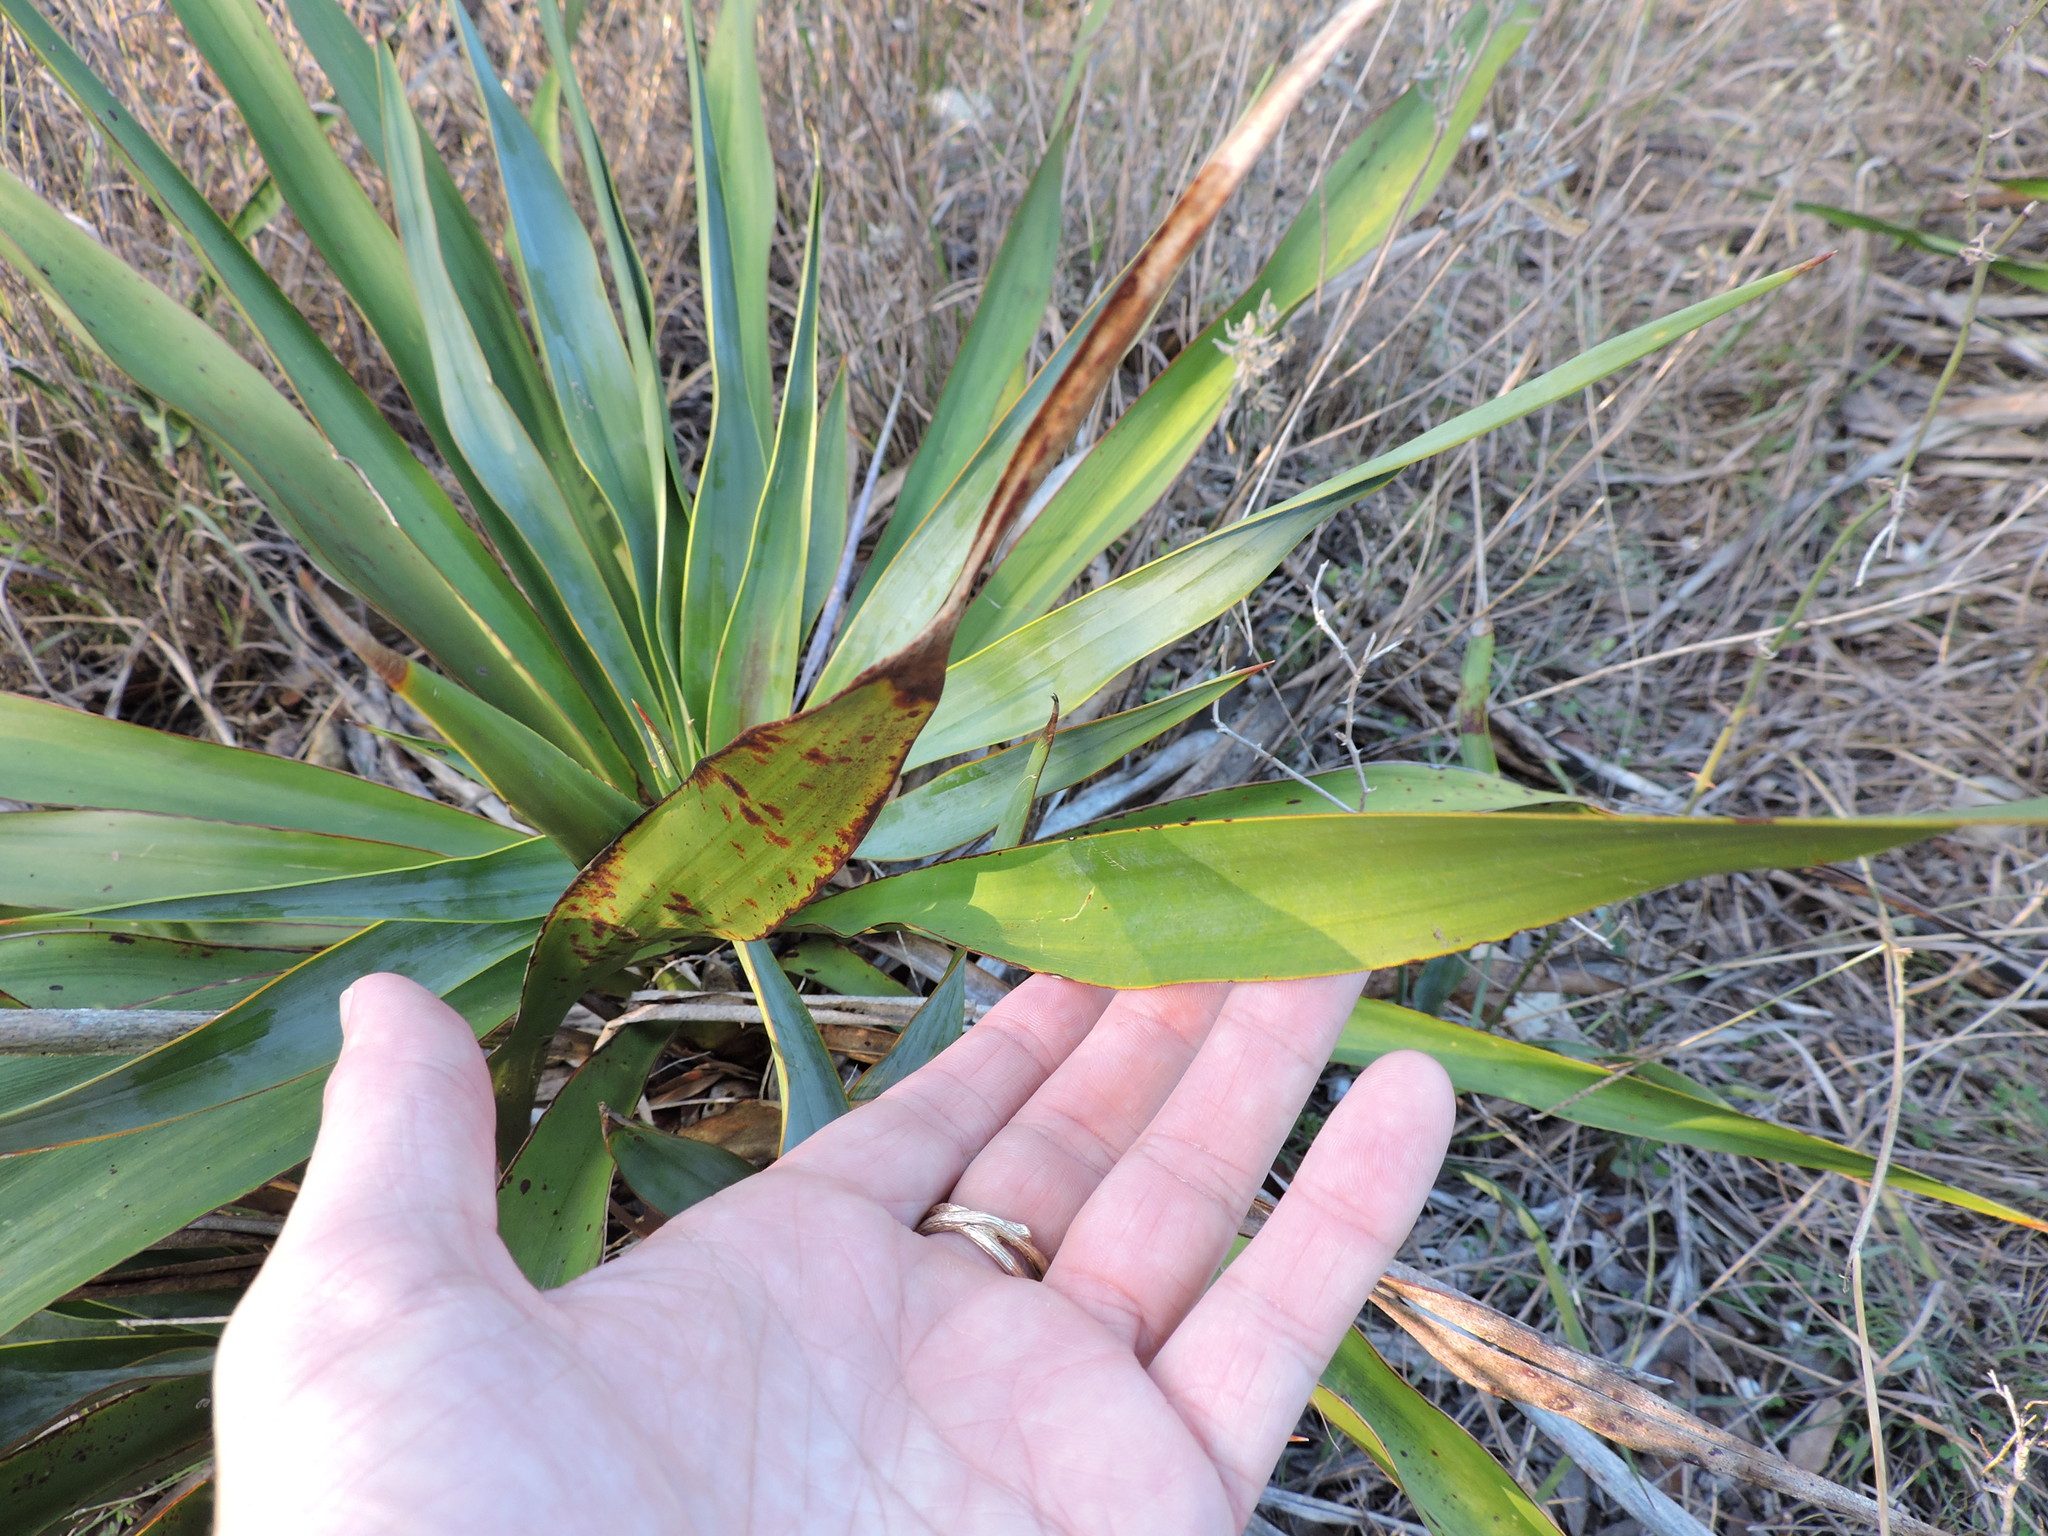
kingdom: Plantae
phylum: Tracheophyta
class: Liliopsida
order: Asparagales
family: Asparagaceae
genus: Yucca
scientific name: Yucca rupicola
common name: Twisted-leaf spanish-dagger
